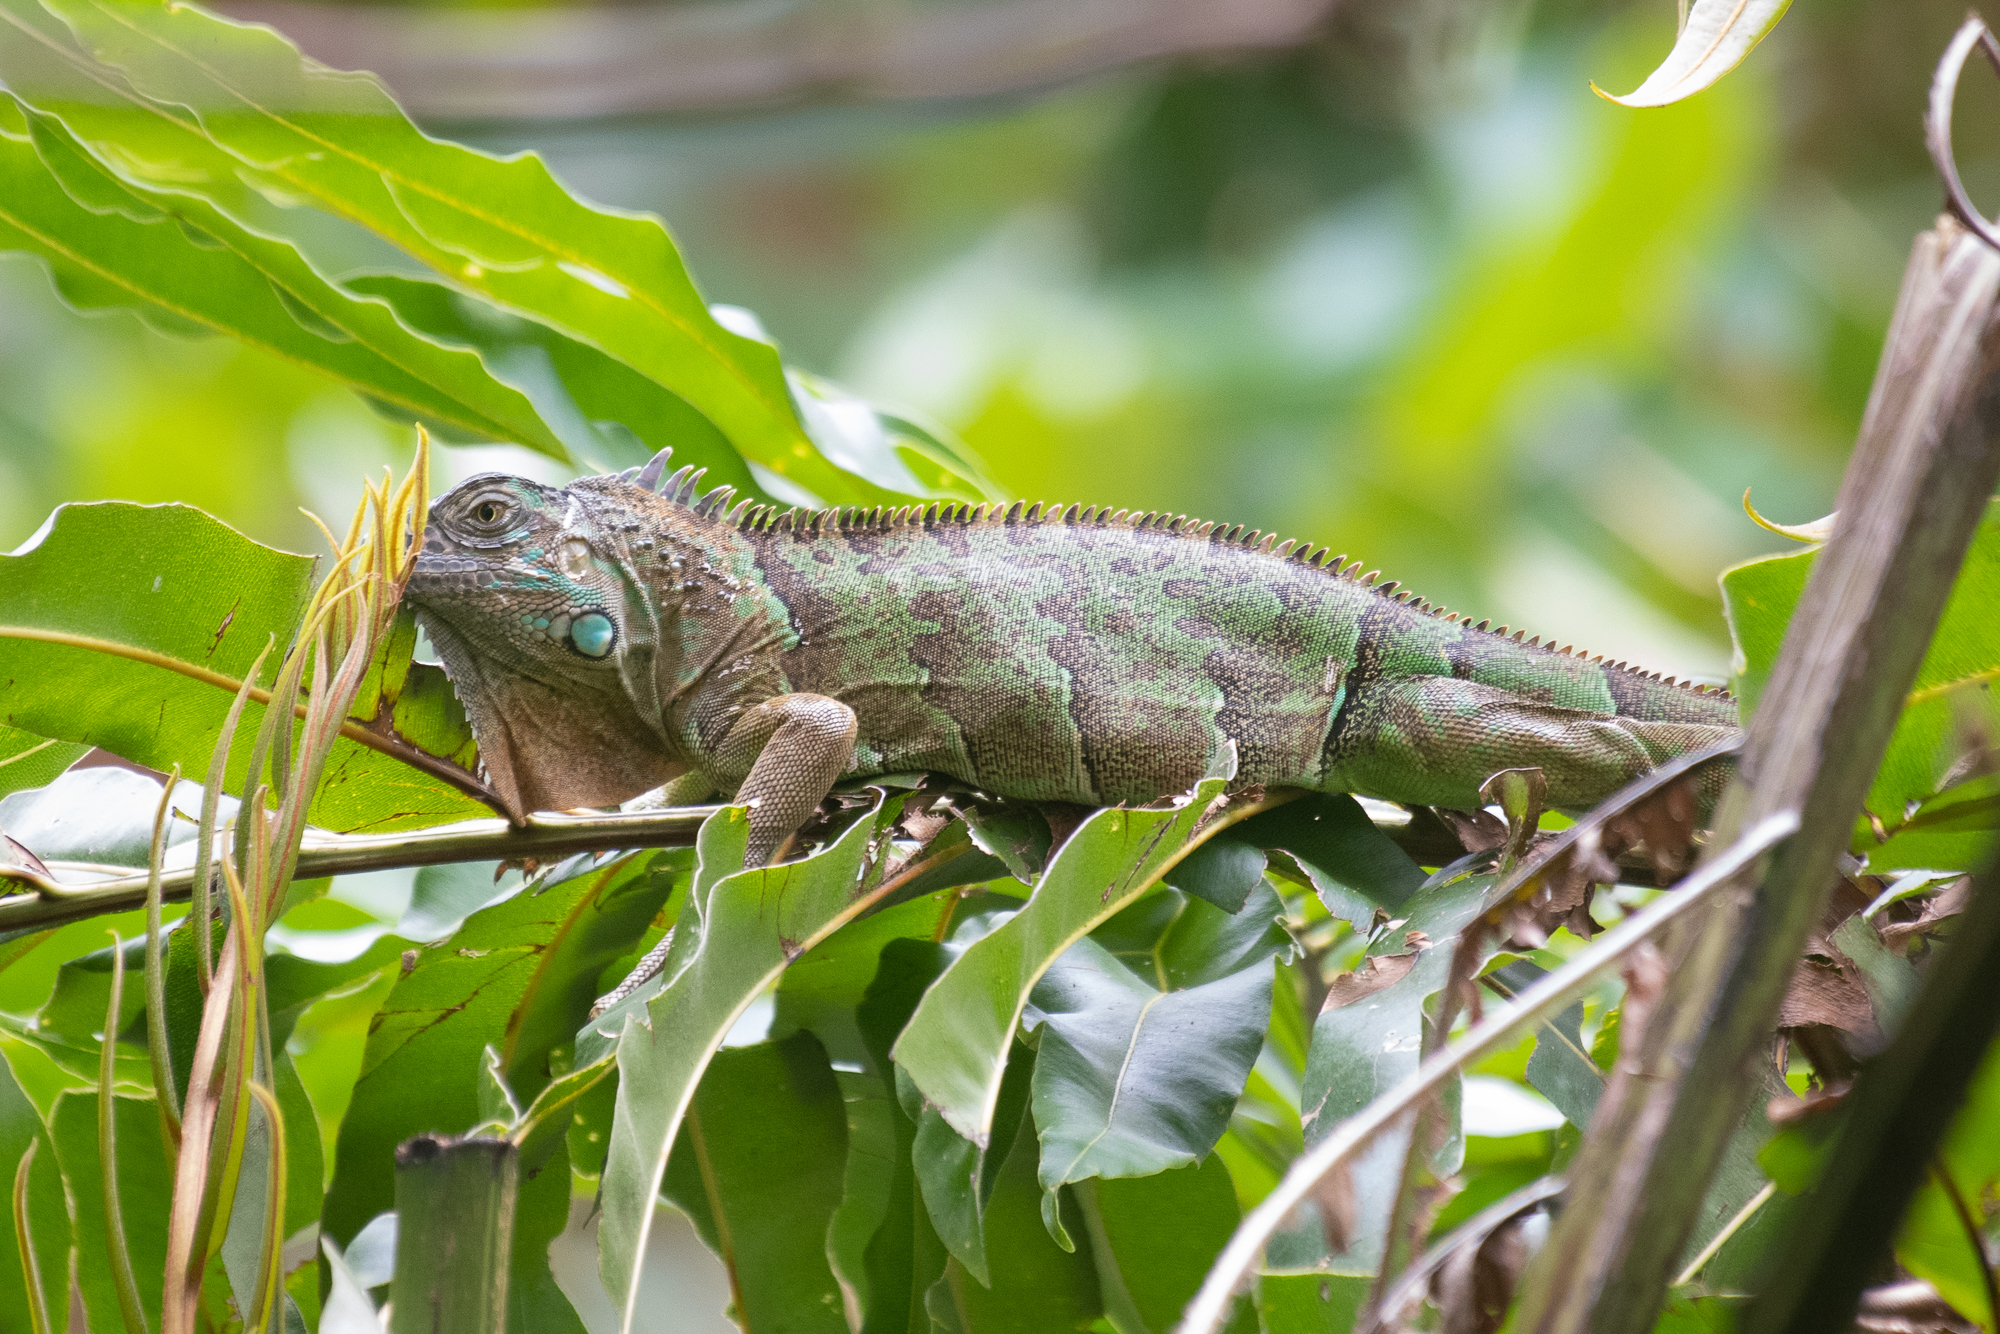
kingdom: Animalia
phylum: Chordata
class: Squamata
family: Iguanidae
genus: Iguana
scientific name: Iguana iguana
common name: Green iguana
